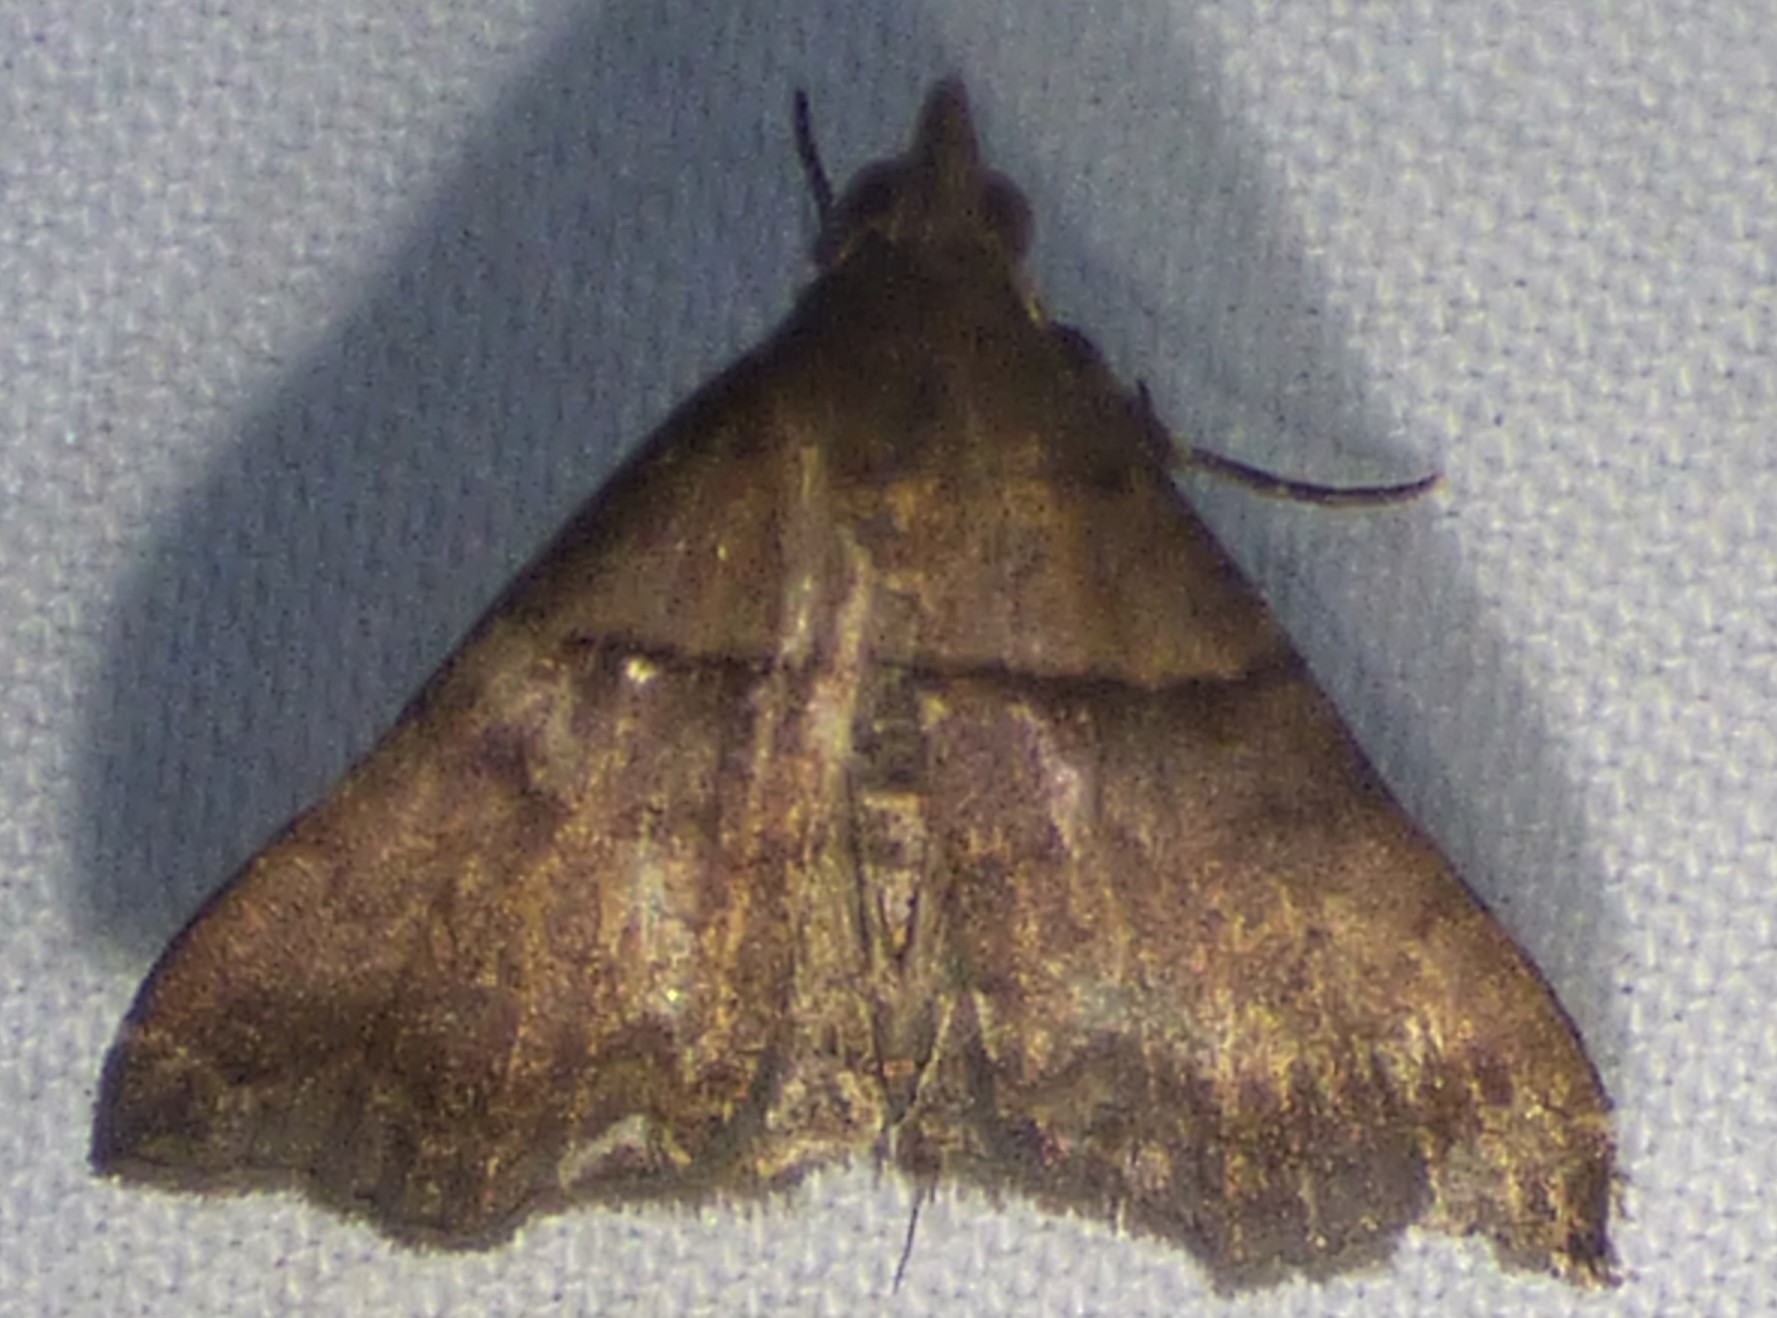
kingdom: Animalia
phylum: Arthropoda
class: Insecta
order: Lepidoptera
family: Erebidae
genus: Lascoria
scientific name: Lascoria ambigualis
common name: Ambiguous moth
